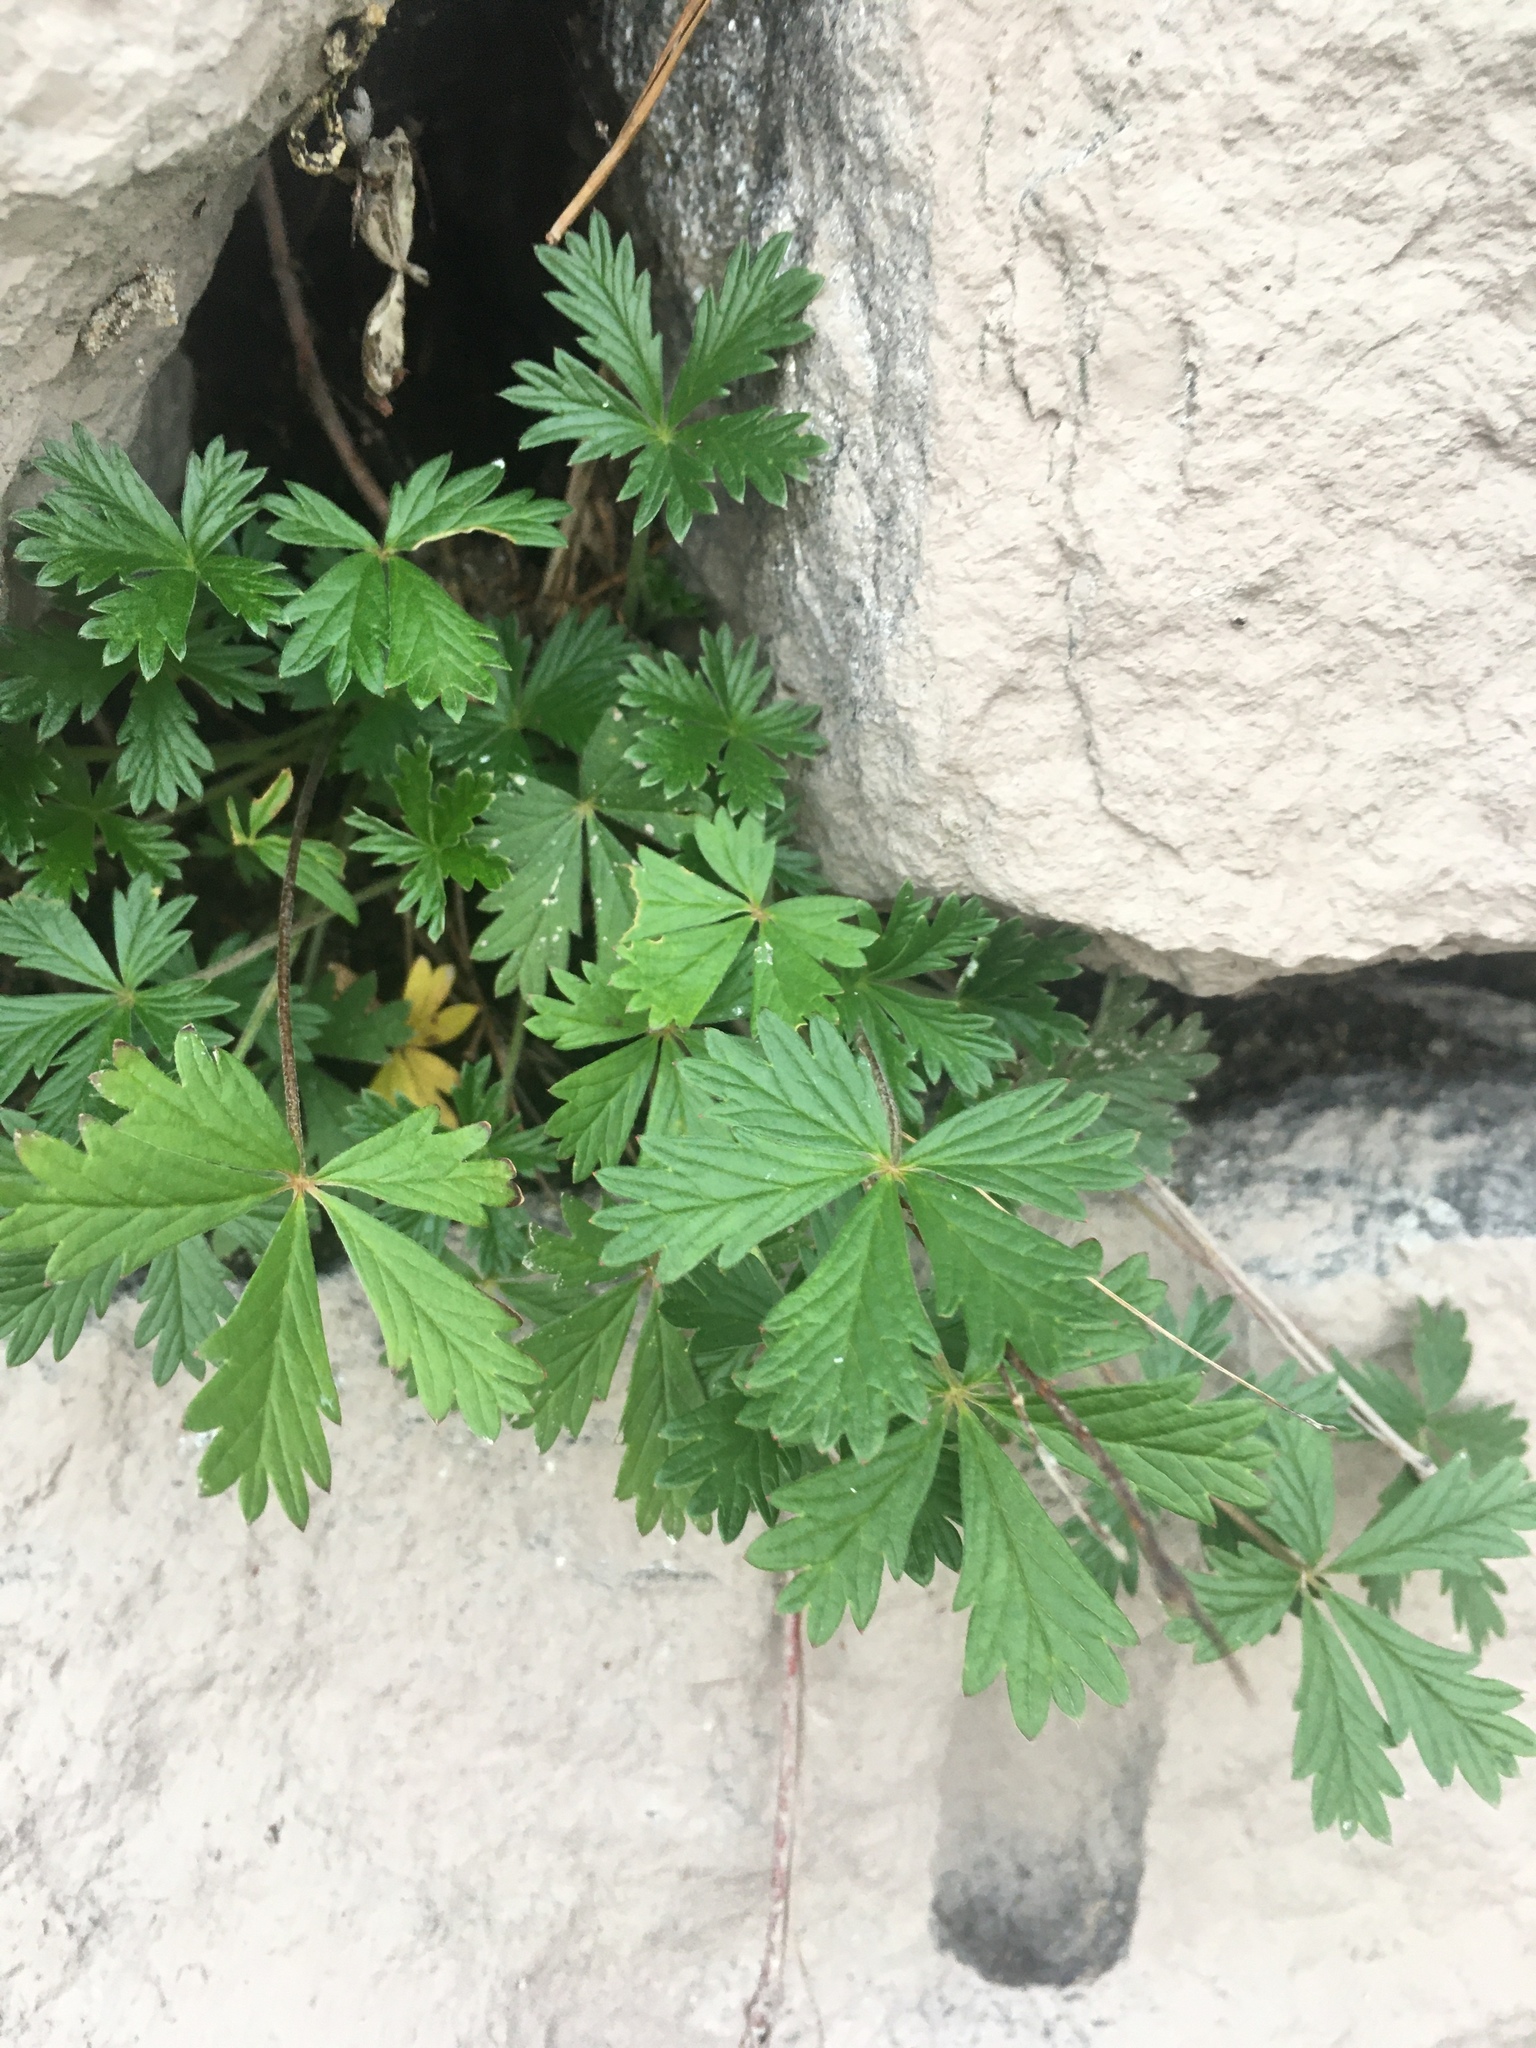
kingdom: Plantae
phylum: Tracheophyta
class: Magnoliopsida
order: Rosales
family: Rosaceae
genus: Potentilla
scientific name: Potentilla argentea
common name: Hoary cinquefoil
